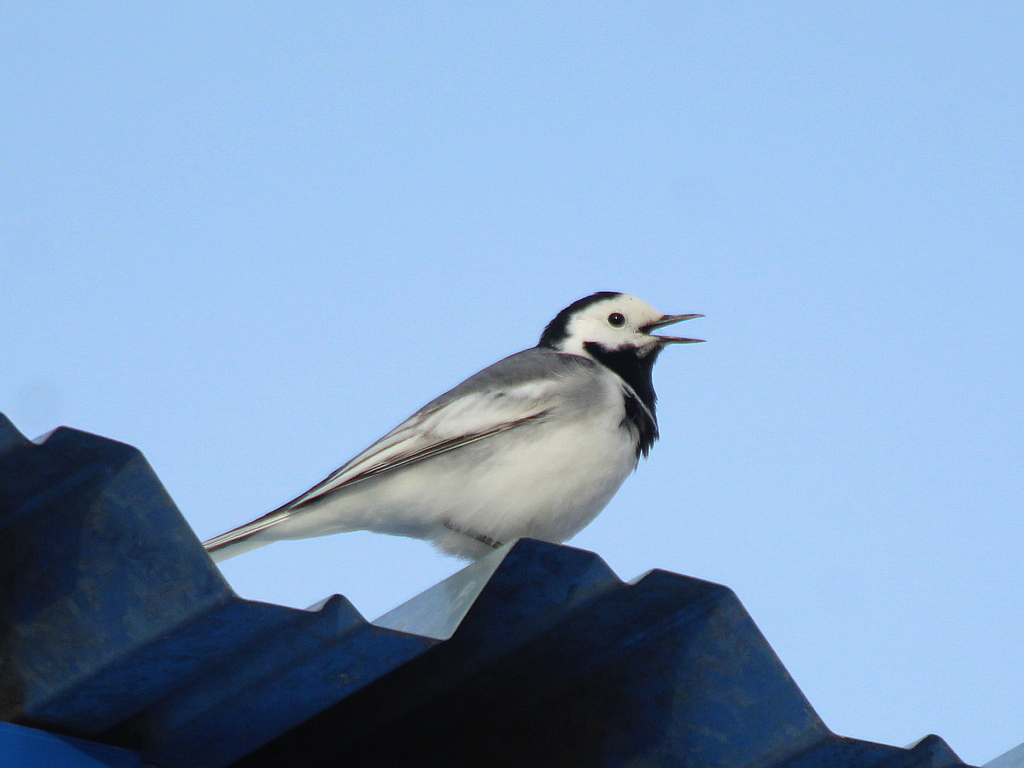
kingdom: Animalia
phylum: Chordata
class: Aves
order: Passeriformes
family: Motacillidae
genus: Motacilla
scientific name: Motacilla alba
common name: White wagtail
